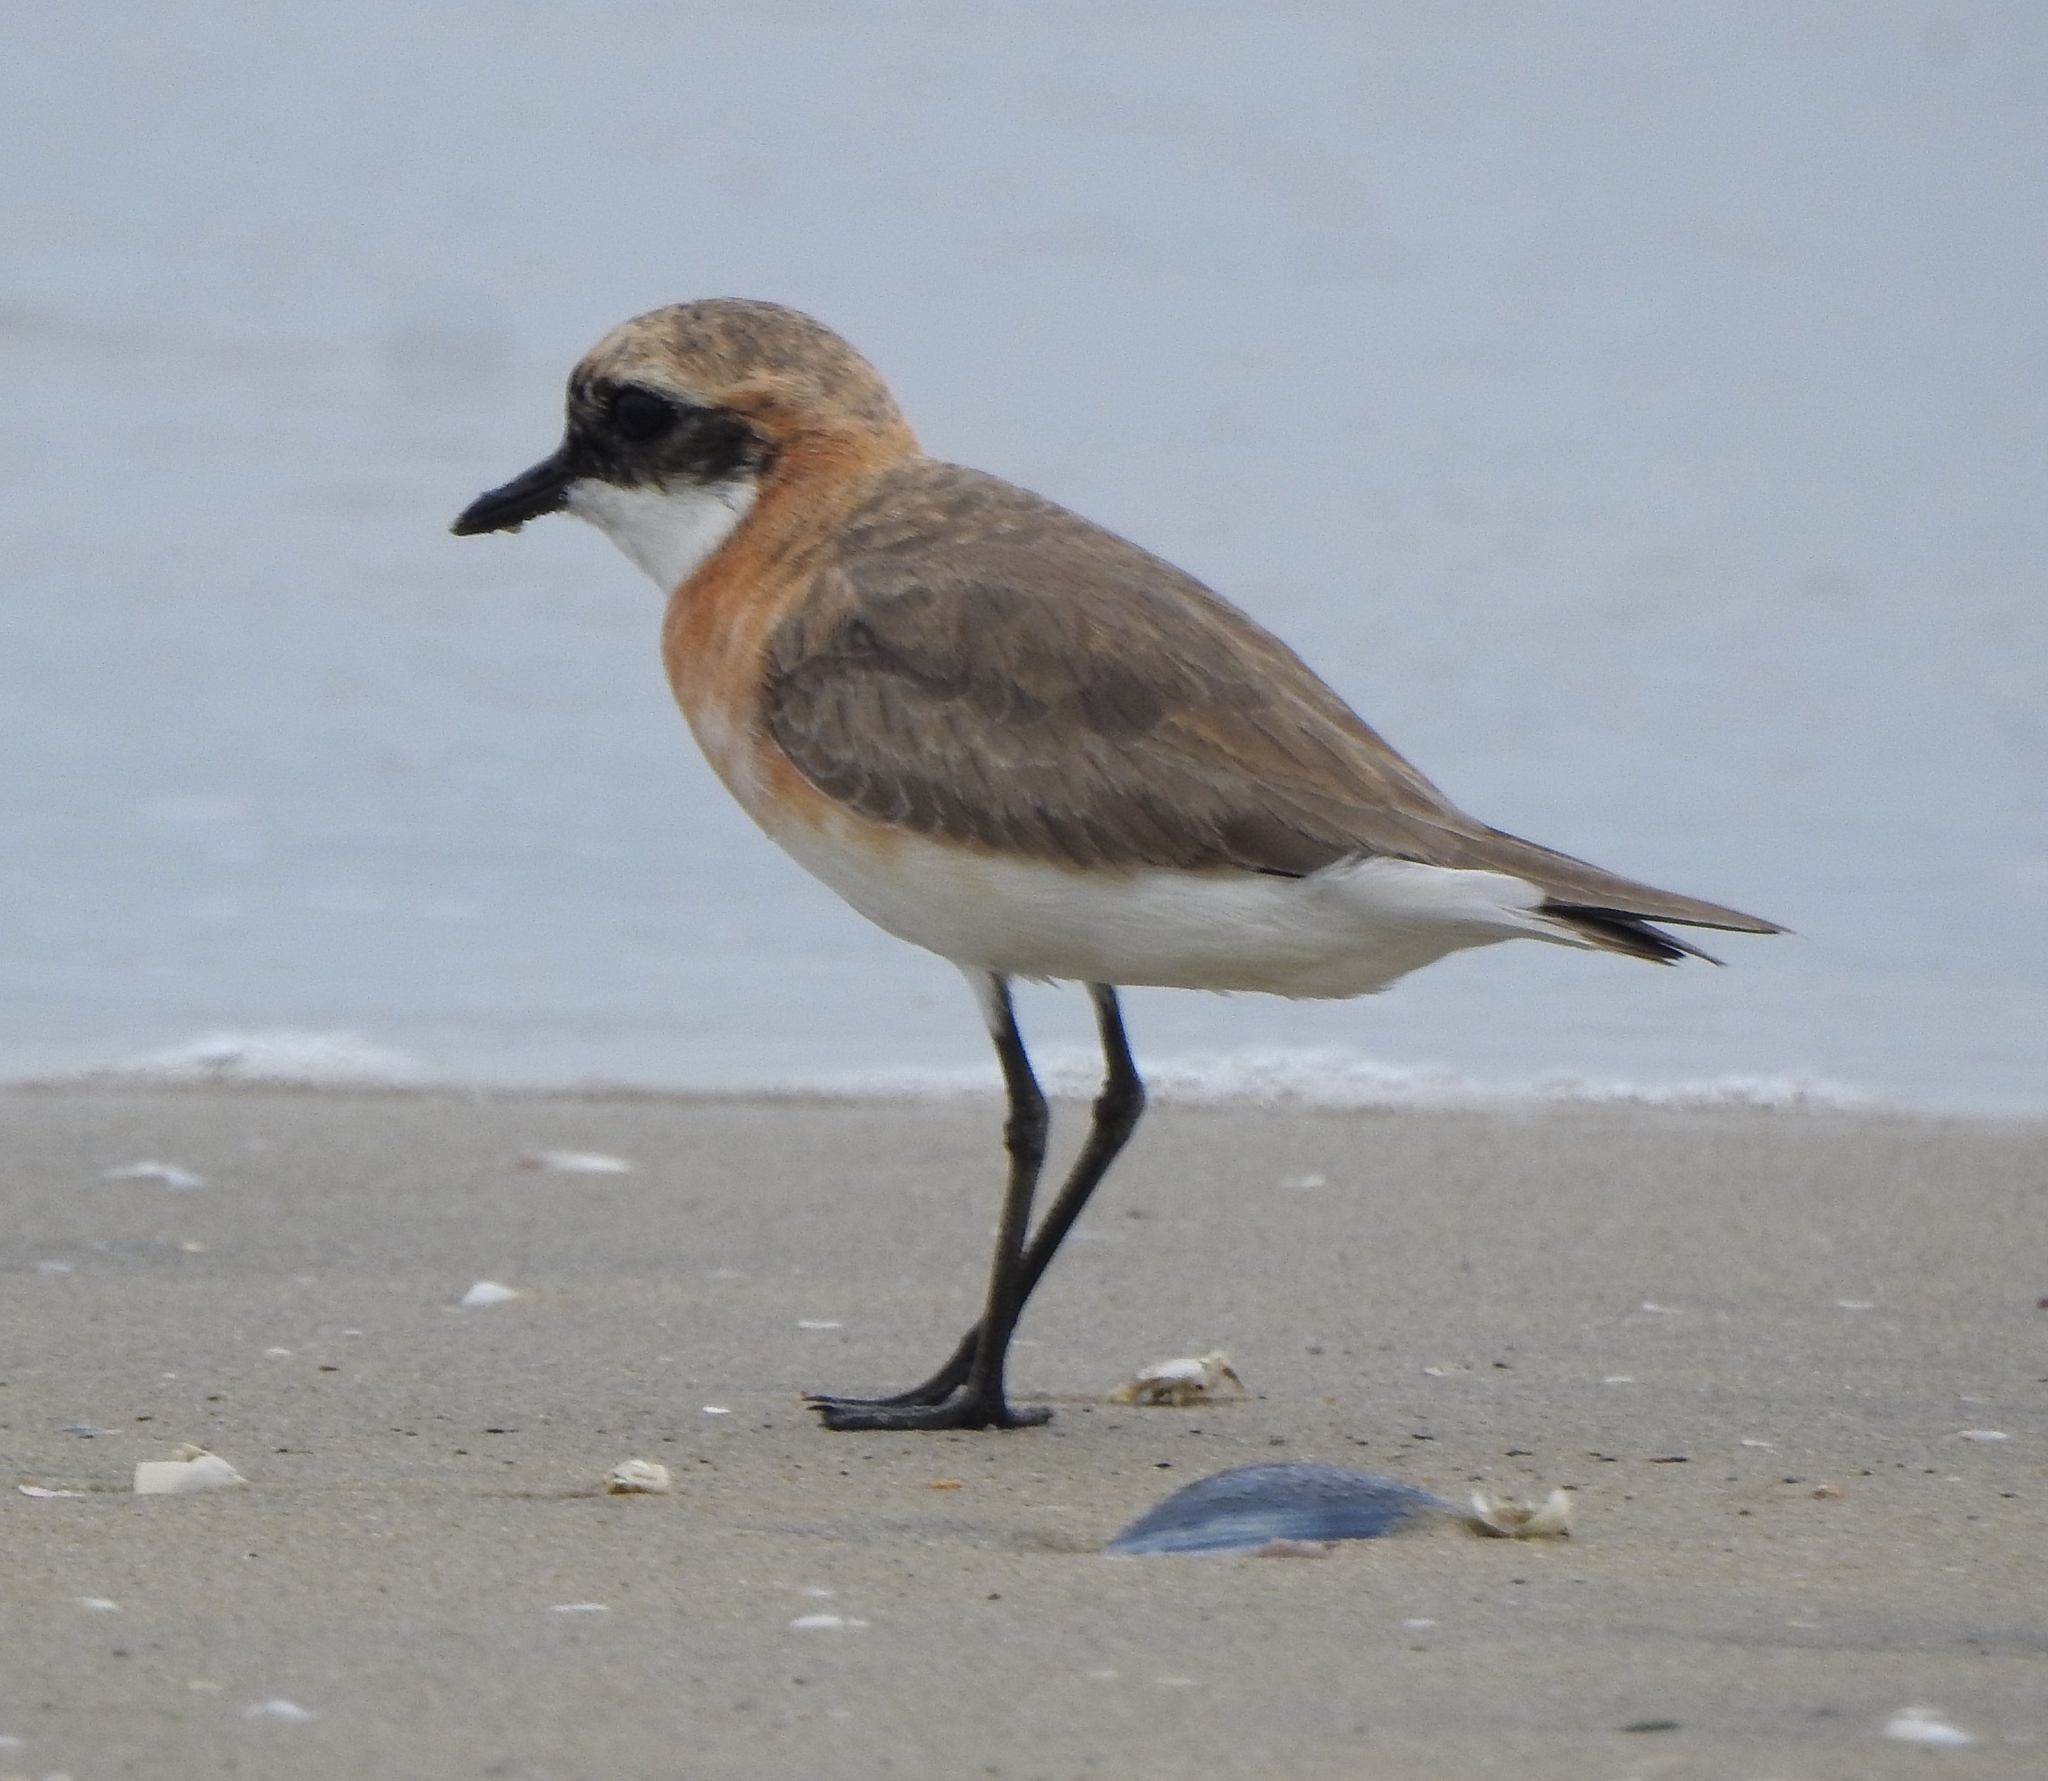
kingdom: Animalia
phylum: Chordata
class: Aves
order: Charadriiformes
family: Charadriidae
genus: Anarhynchus
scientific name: Anarhynchus
